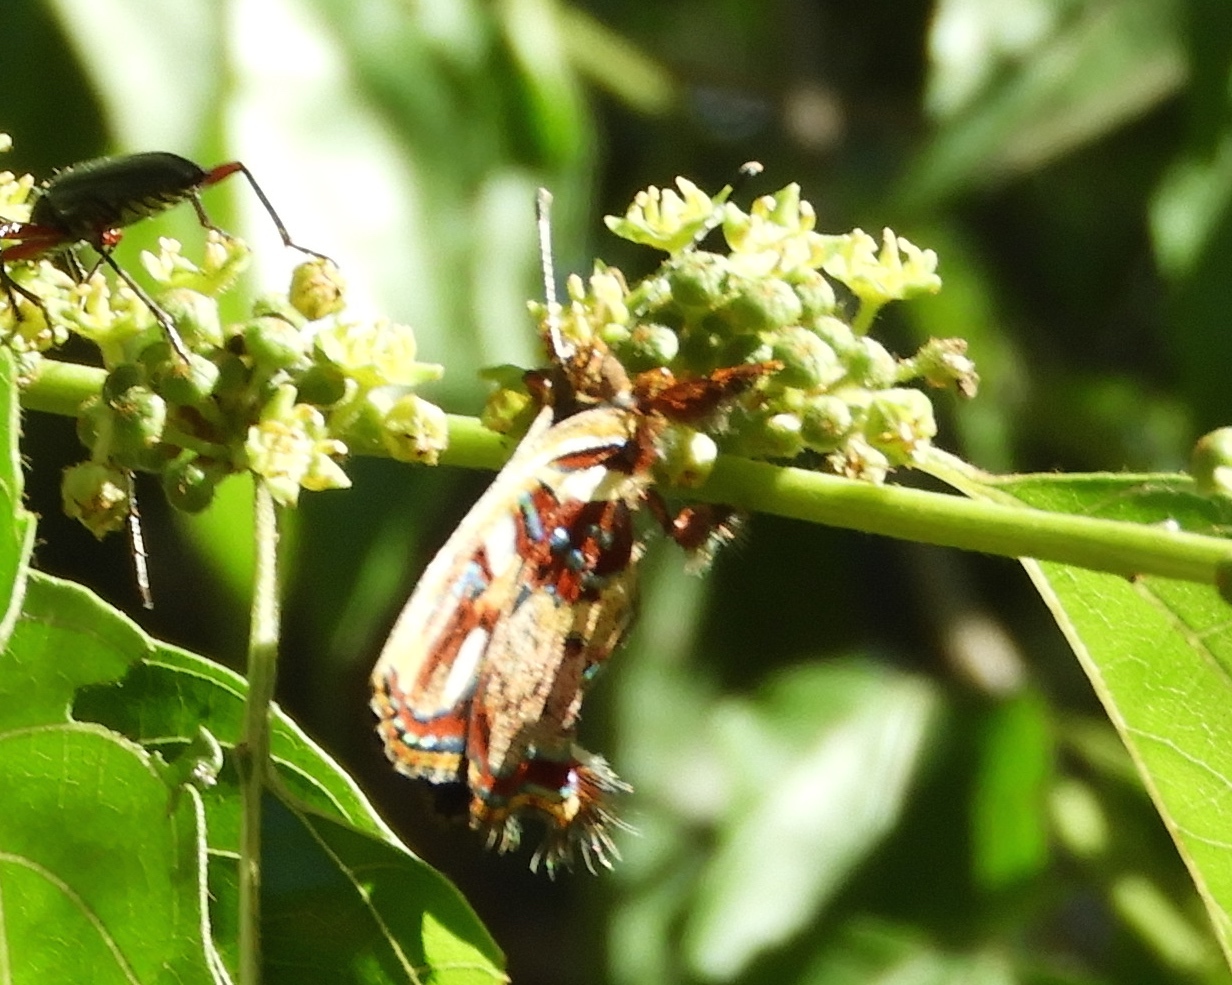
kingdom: Animalia
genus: Anteros
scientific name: Anteros carausius
